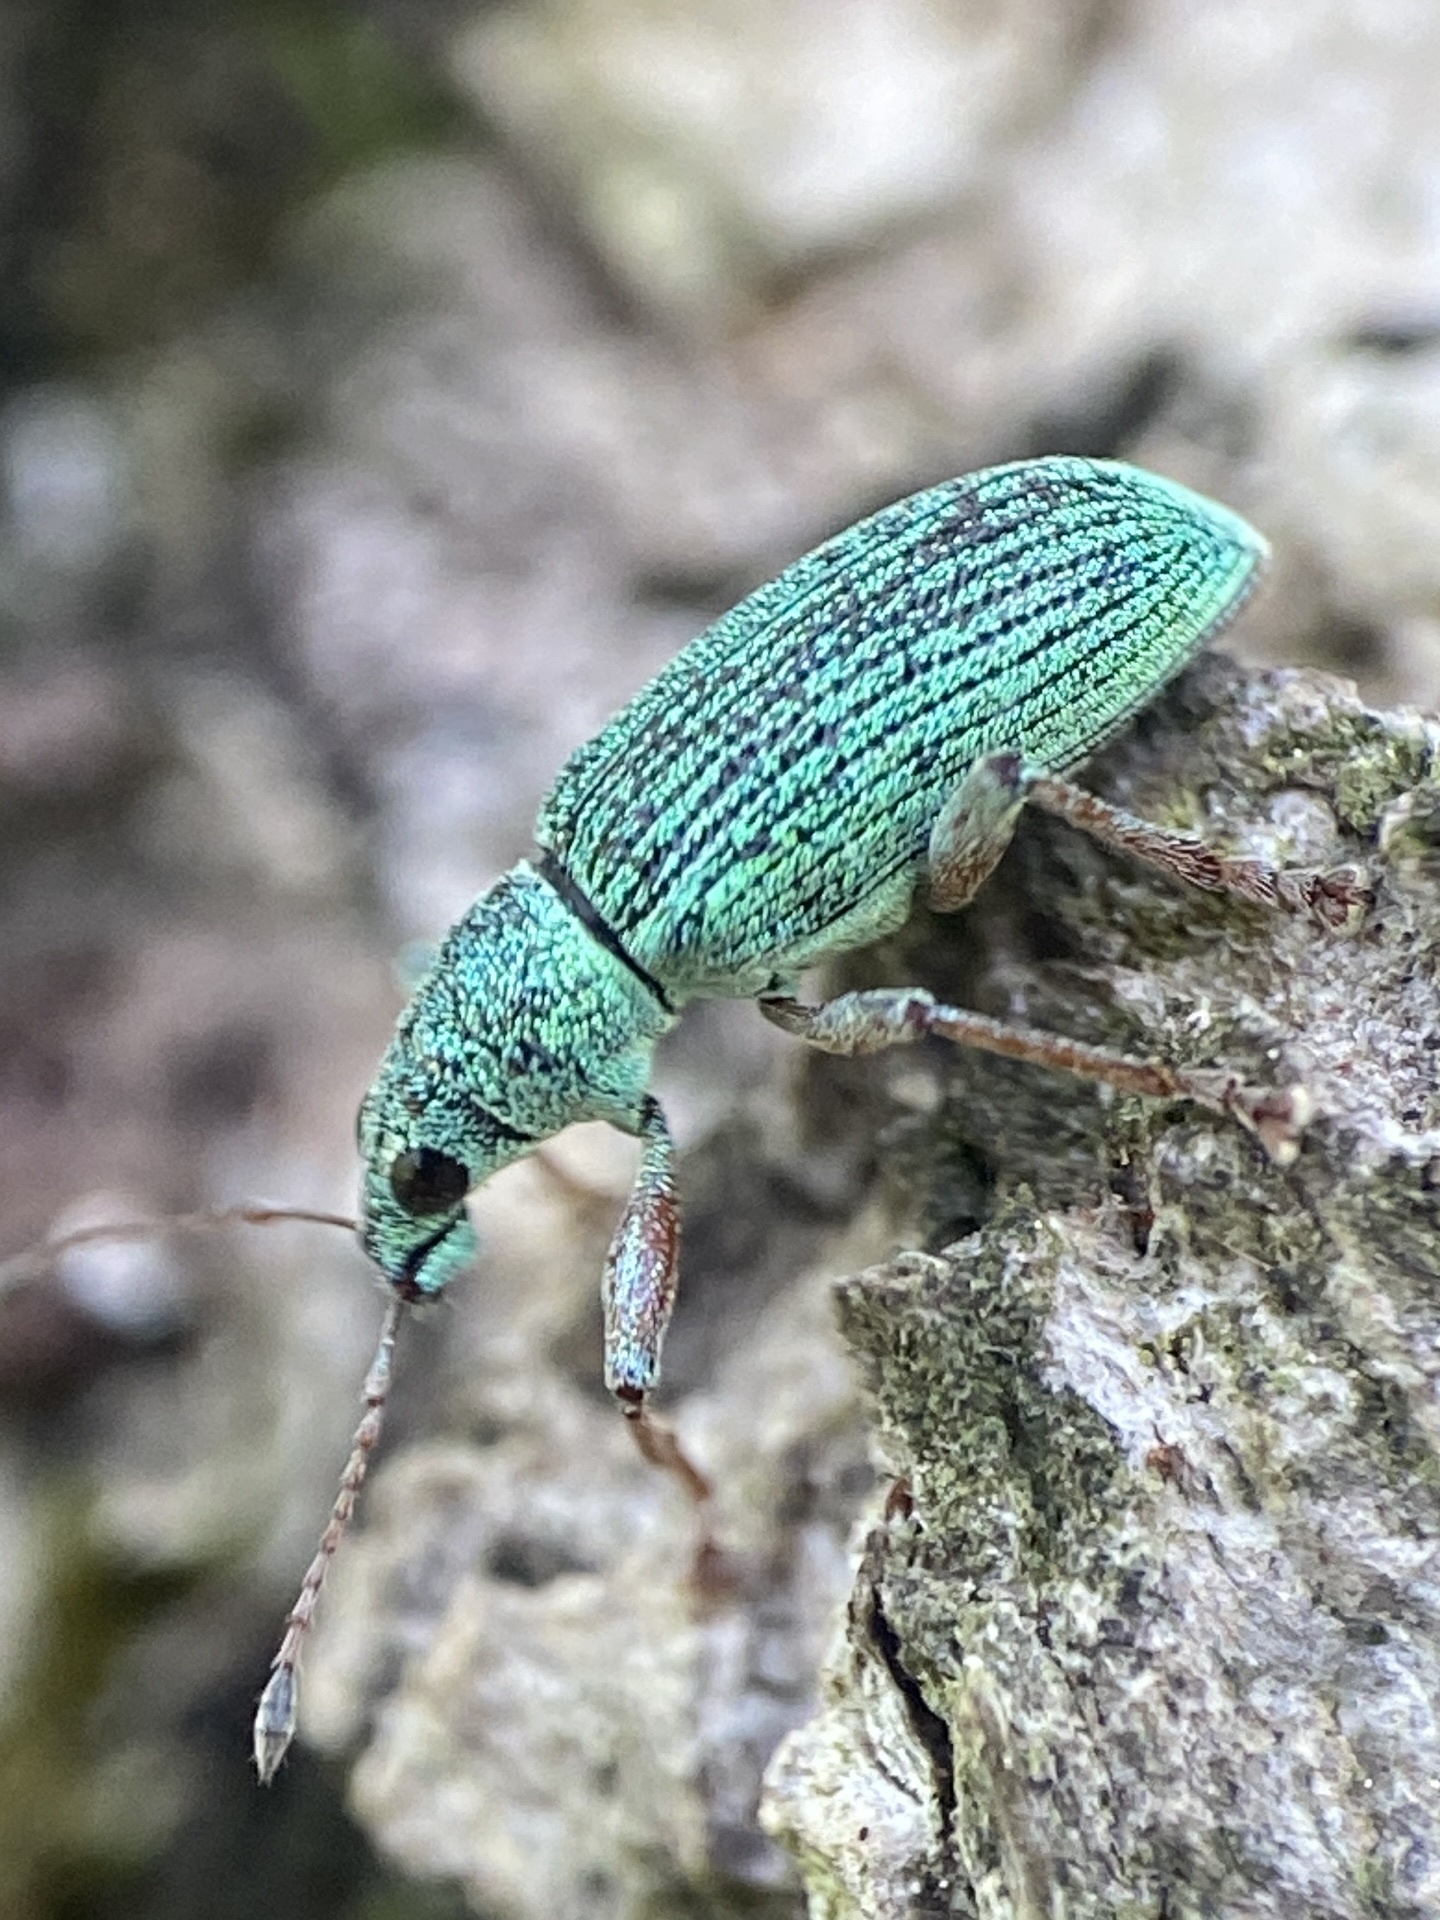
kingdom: Animalia
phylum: Arthropoda
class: Insecta
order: Coleoptera
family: Curculionidae
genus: Polydrusus
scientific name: Polydrusus formosus
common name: Weevil
